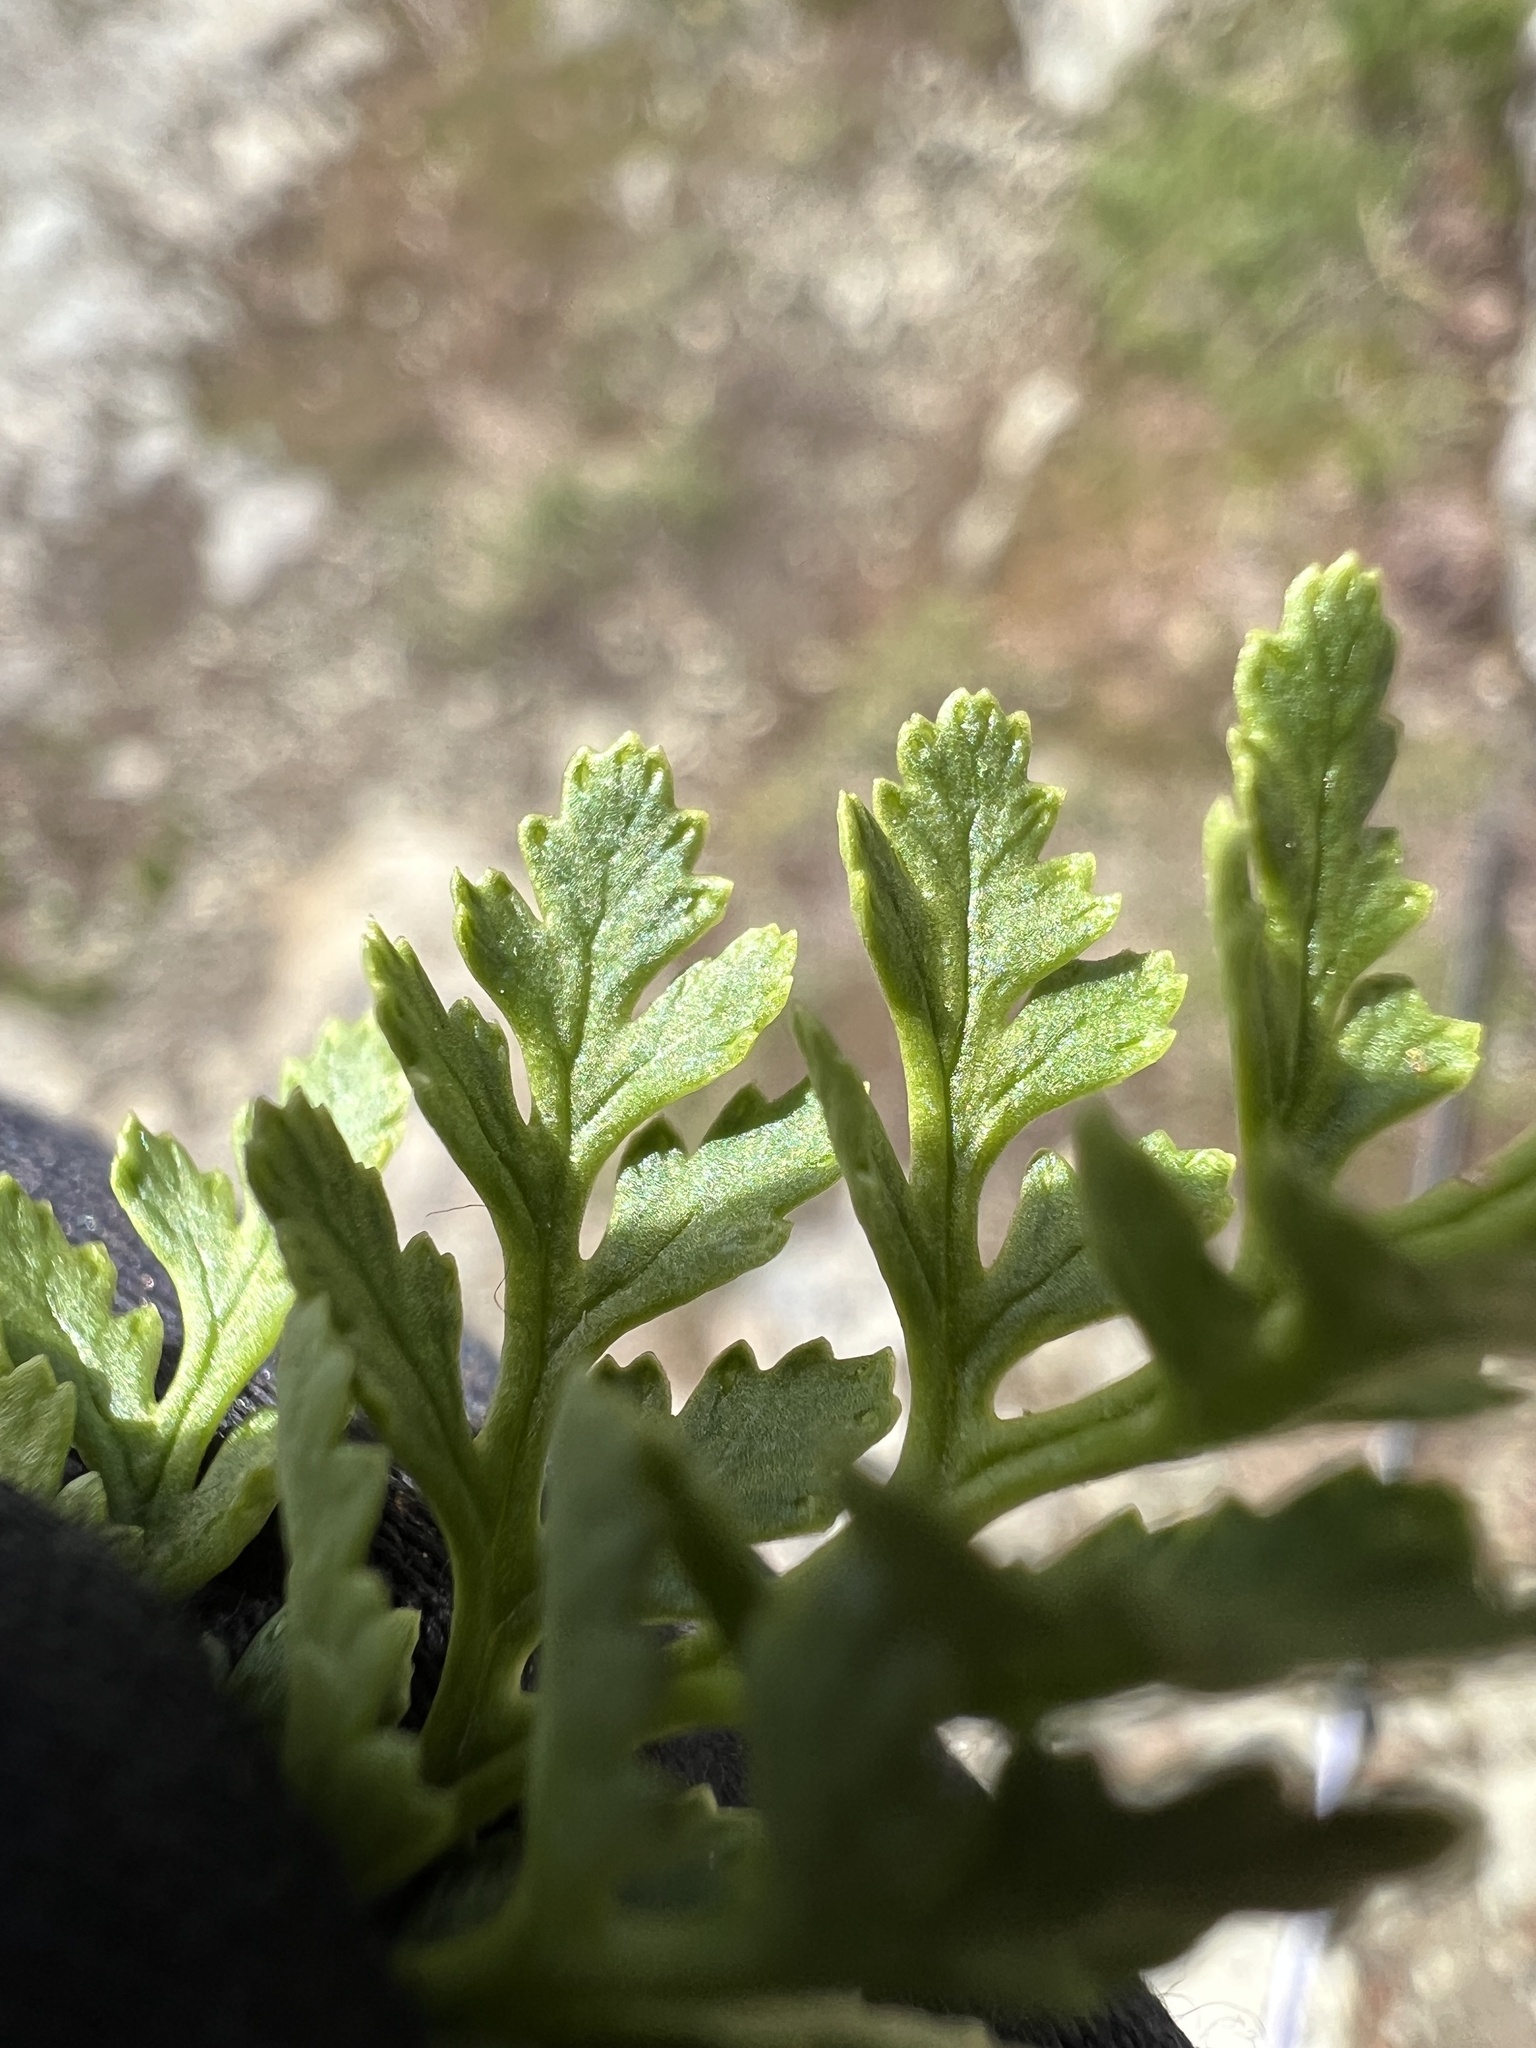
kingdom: Plantae
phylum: Tracheophyta
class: Polypodiopsida
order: Polypodiales
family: Pteridaceae
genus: Cryptogramma
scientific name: Cryptogramma acrostichoides
